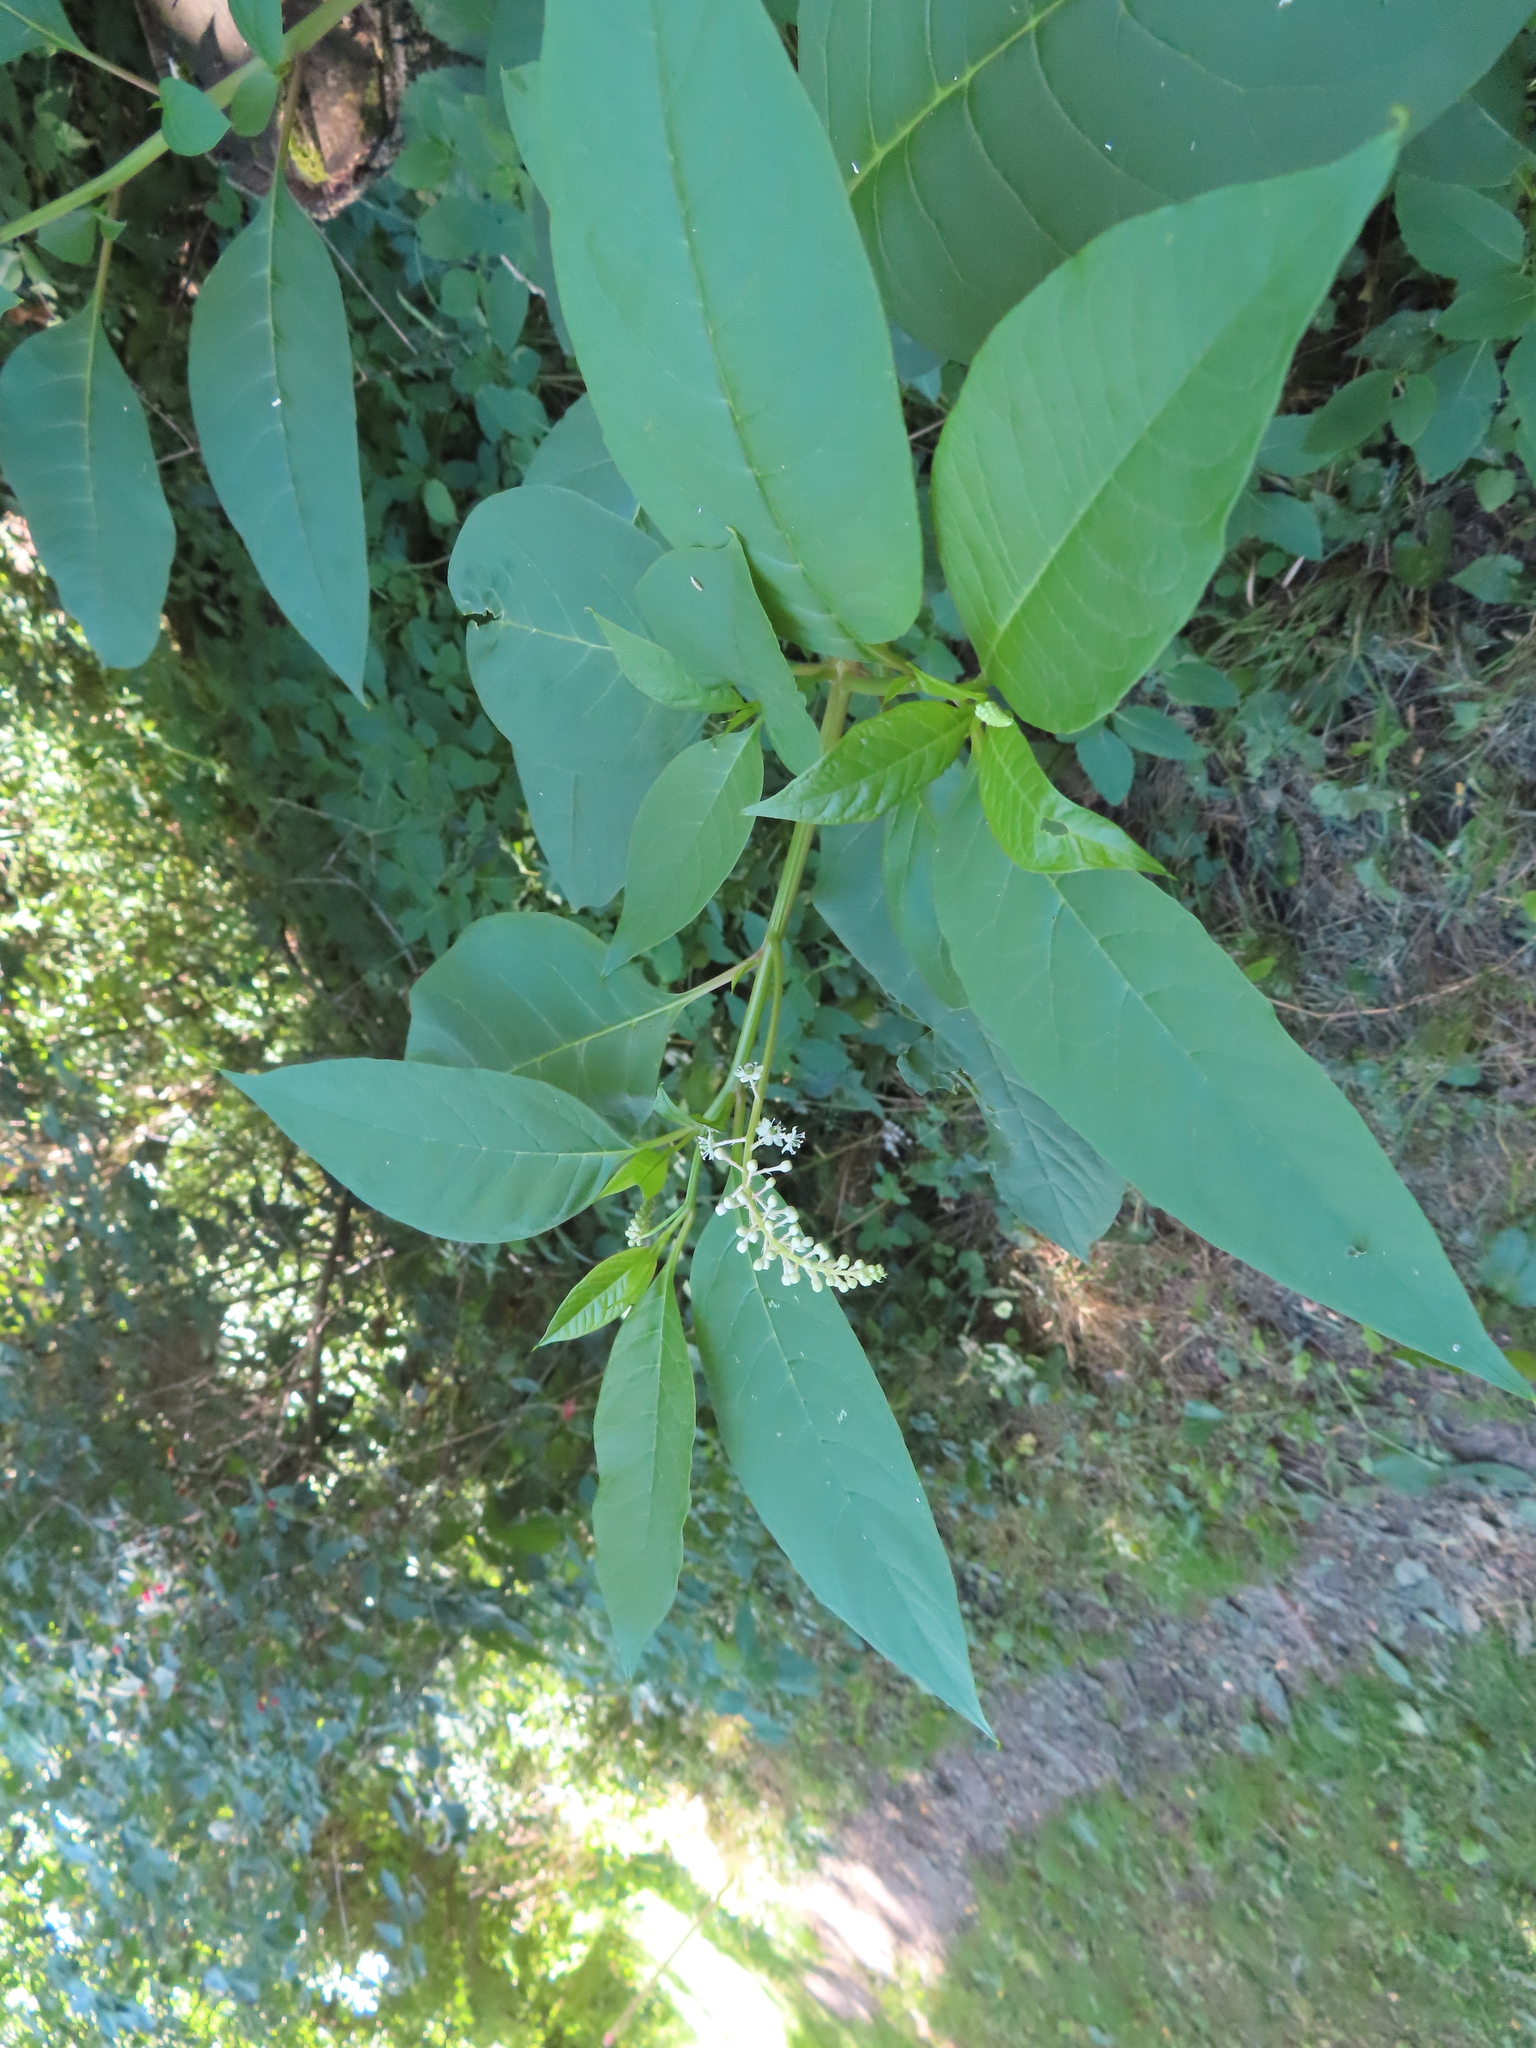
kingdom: Plantae
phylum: Tracheophyta
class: Magnoliopsida
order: Caryophyllales
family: Phytolaccaceae
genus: Phytolacca
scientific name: Phytolacca americana
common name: American pokeweed
